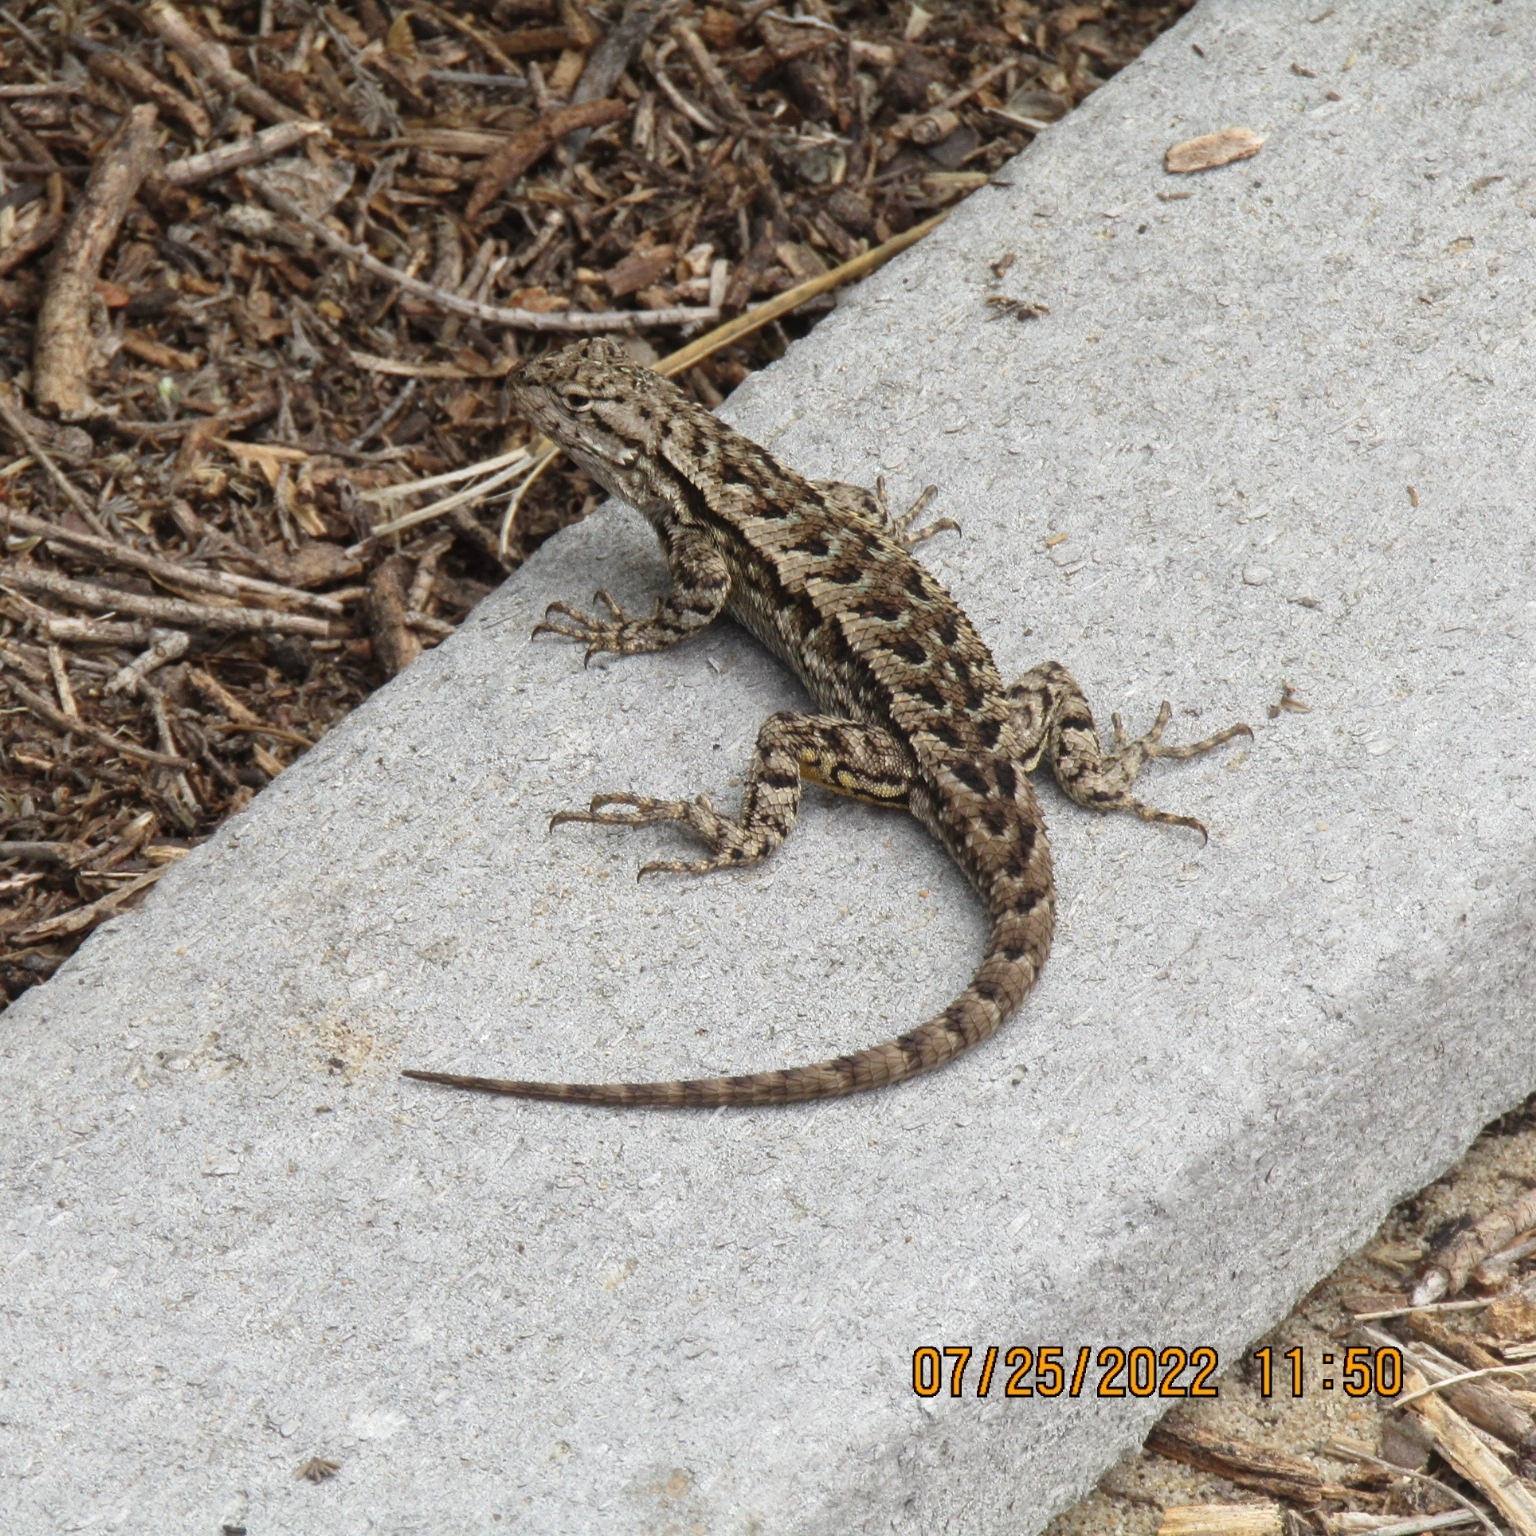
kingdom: Animalia
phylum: Chordata
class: Squamata
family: Phrynosomatidae
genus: Sceloporus
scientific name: Sceloporus occidentalis
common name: Western fence lizard
